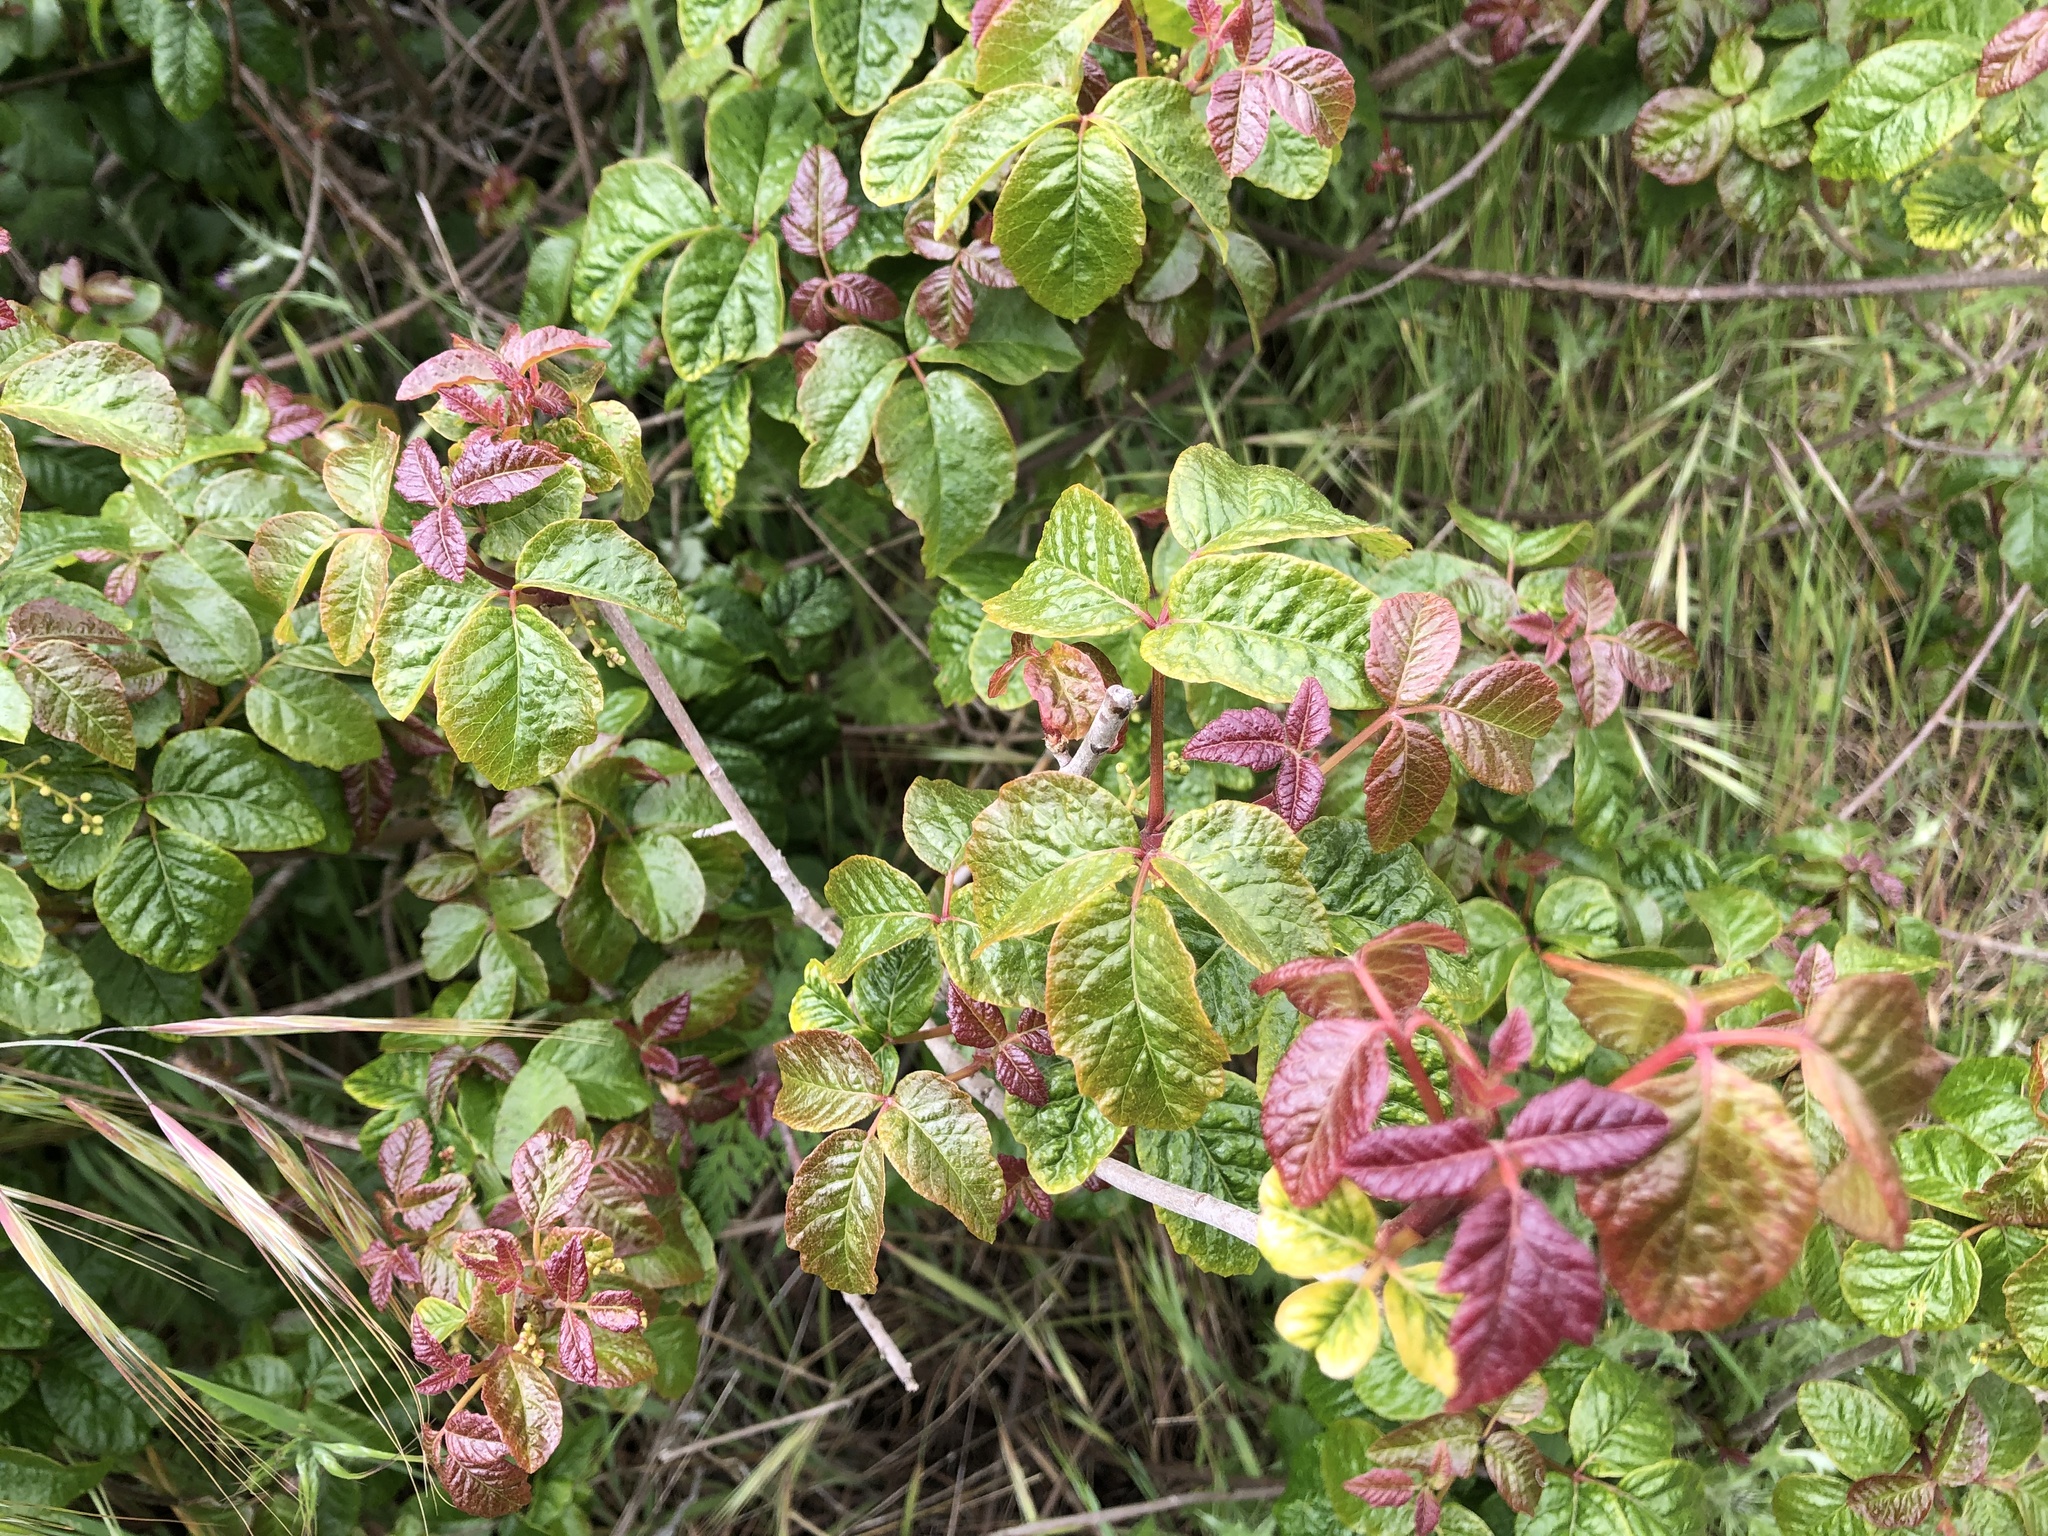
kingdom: Plantae
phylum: Tracheophyta
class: Magnoliopsida
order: Sapindales
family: Anacardiaceae
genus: Toxicodendron
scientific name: Toxicodendron diversilobum
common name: Pacific poison-oak
